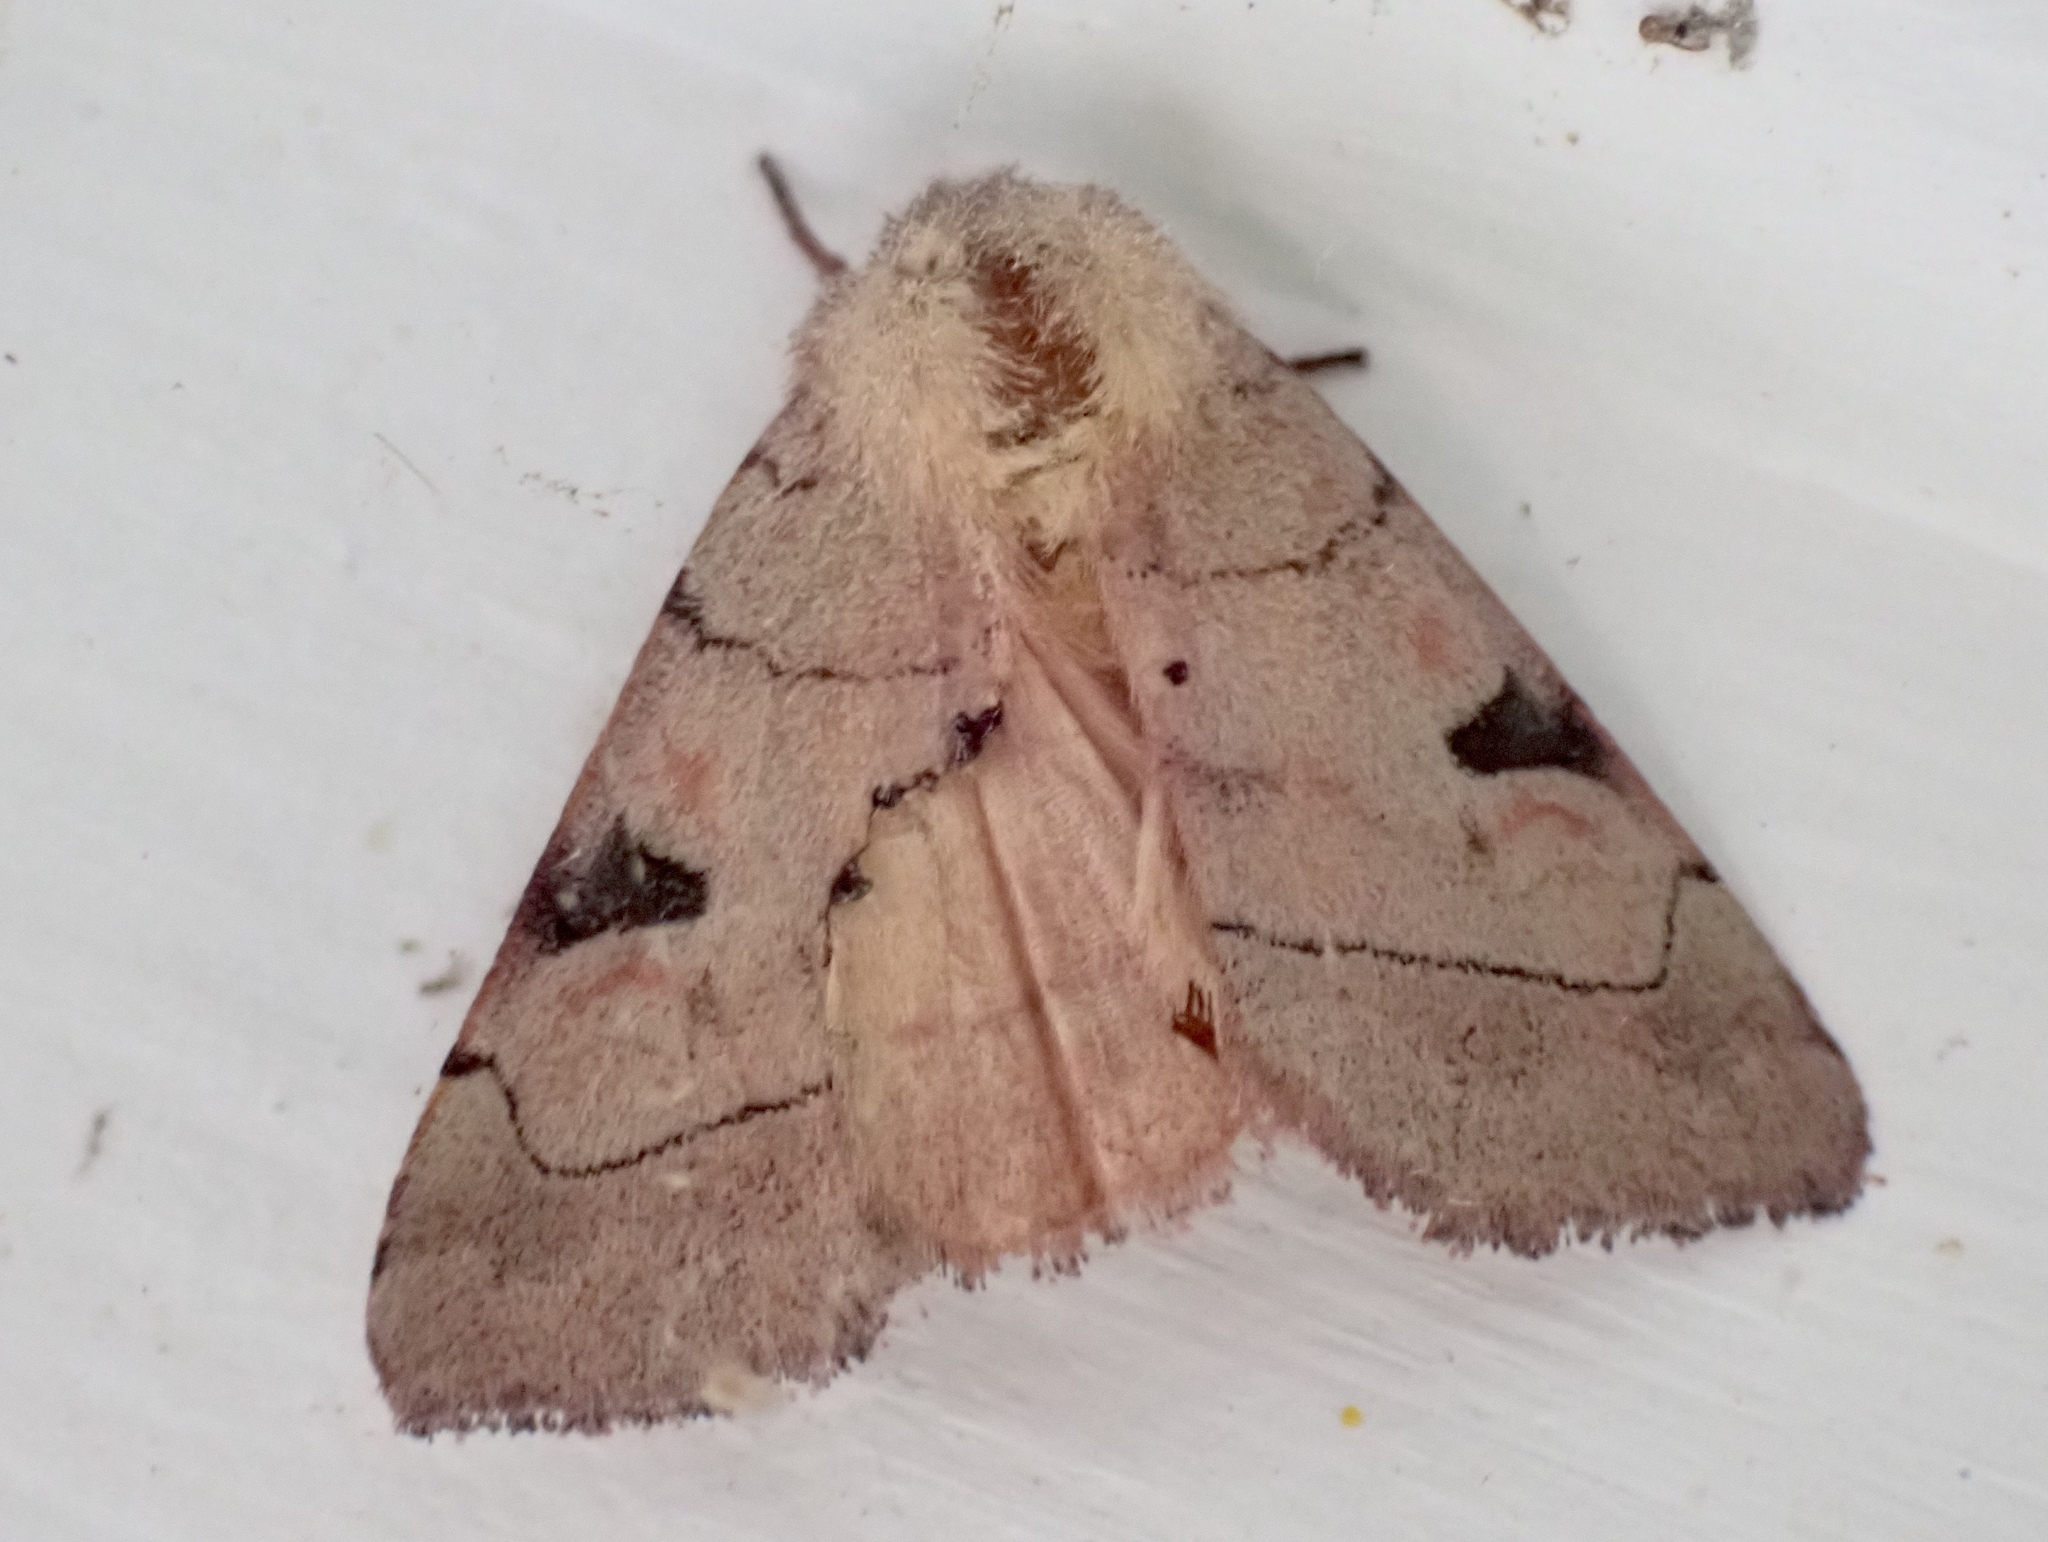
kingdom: Animalia
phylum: Arthropoda
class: Insecta
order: Lepidoptera
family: Noctuidae
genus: Choephora
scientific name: Choephora fungorum
